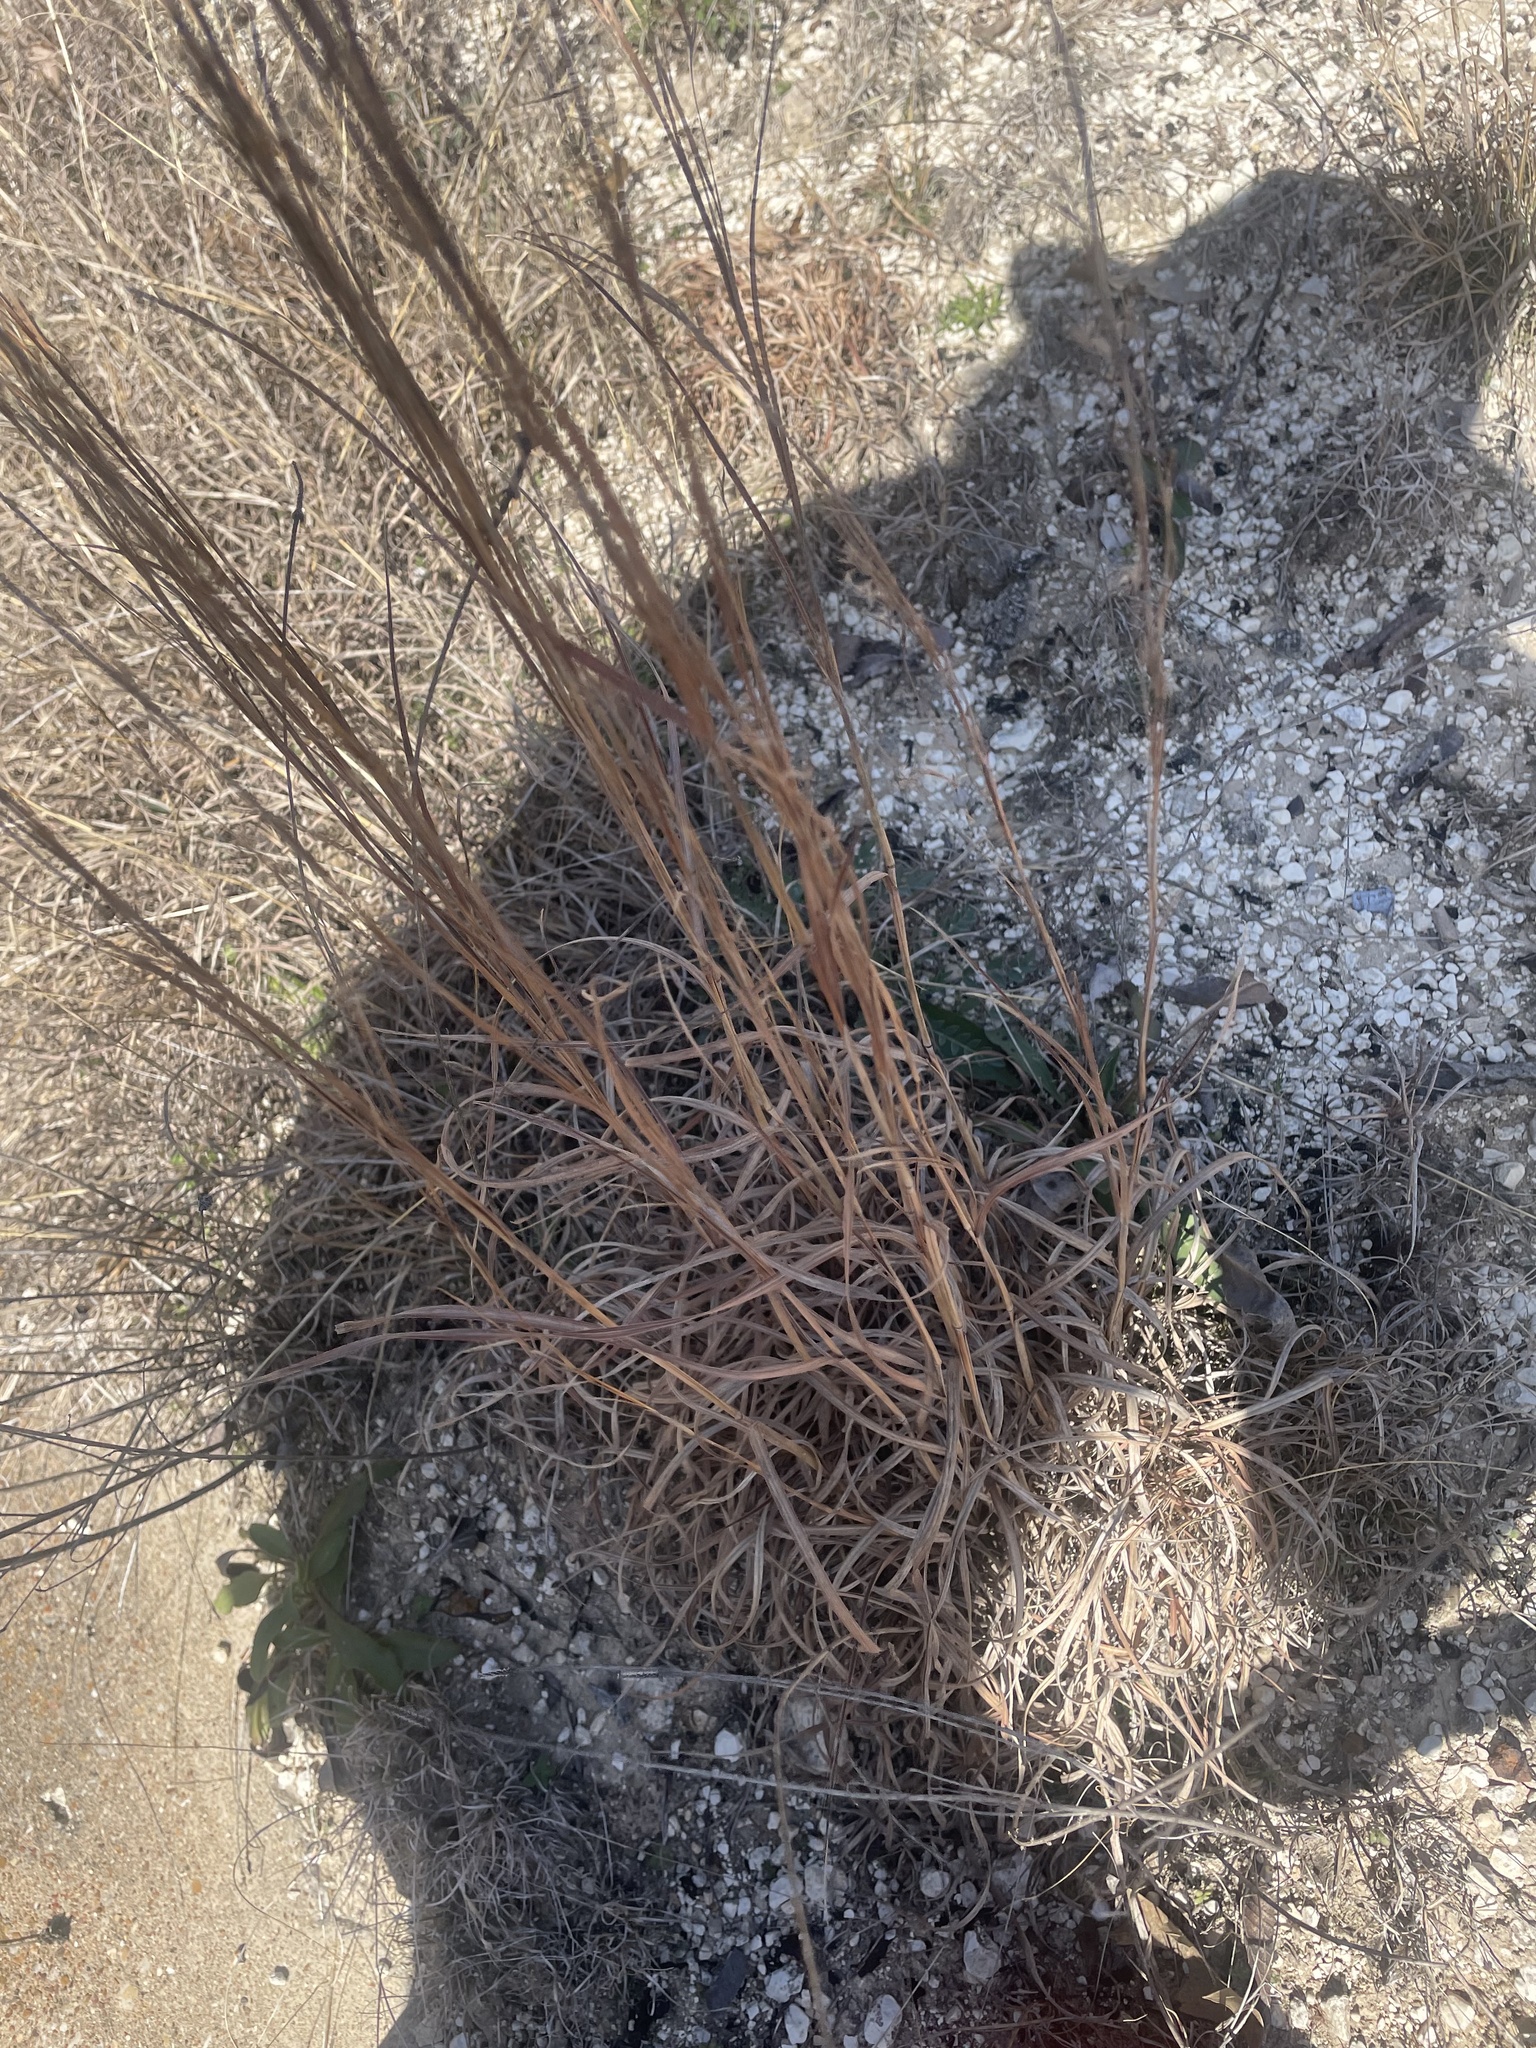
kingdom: Plantae
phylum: Tracheophyta
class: Liliopsida
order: Poales
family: Poaceae
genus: Schizachyrium
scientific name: Schizachyrium scoparium
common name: Little bluestem
